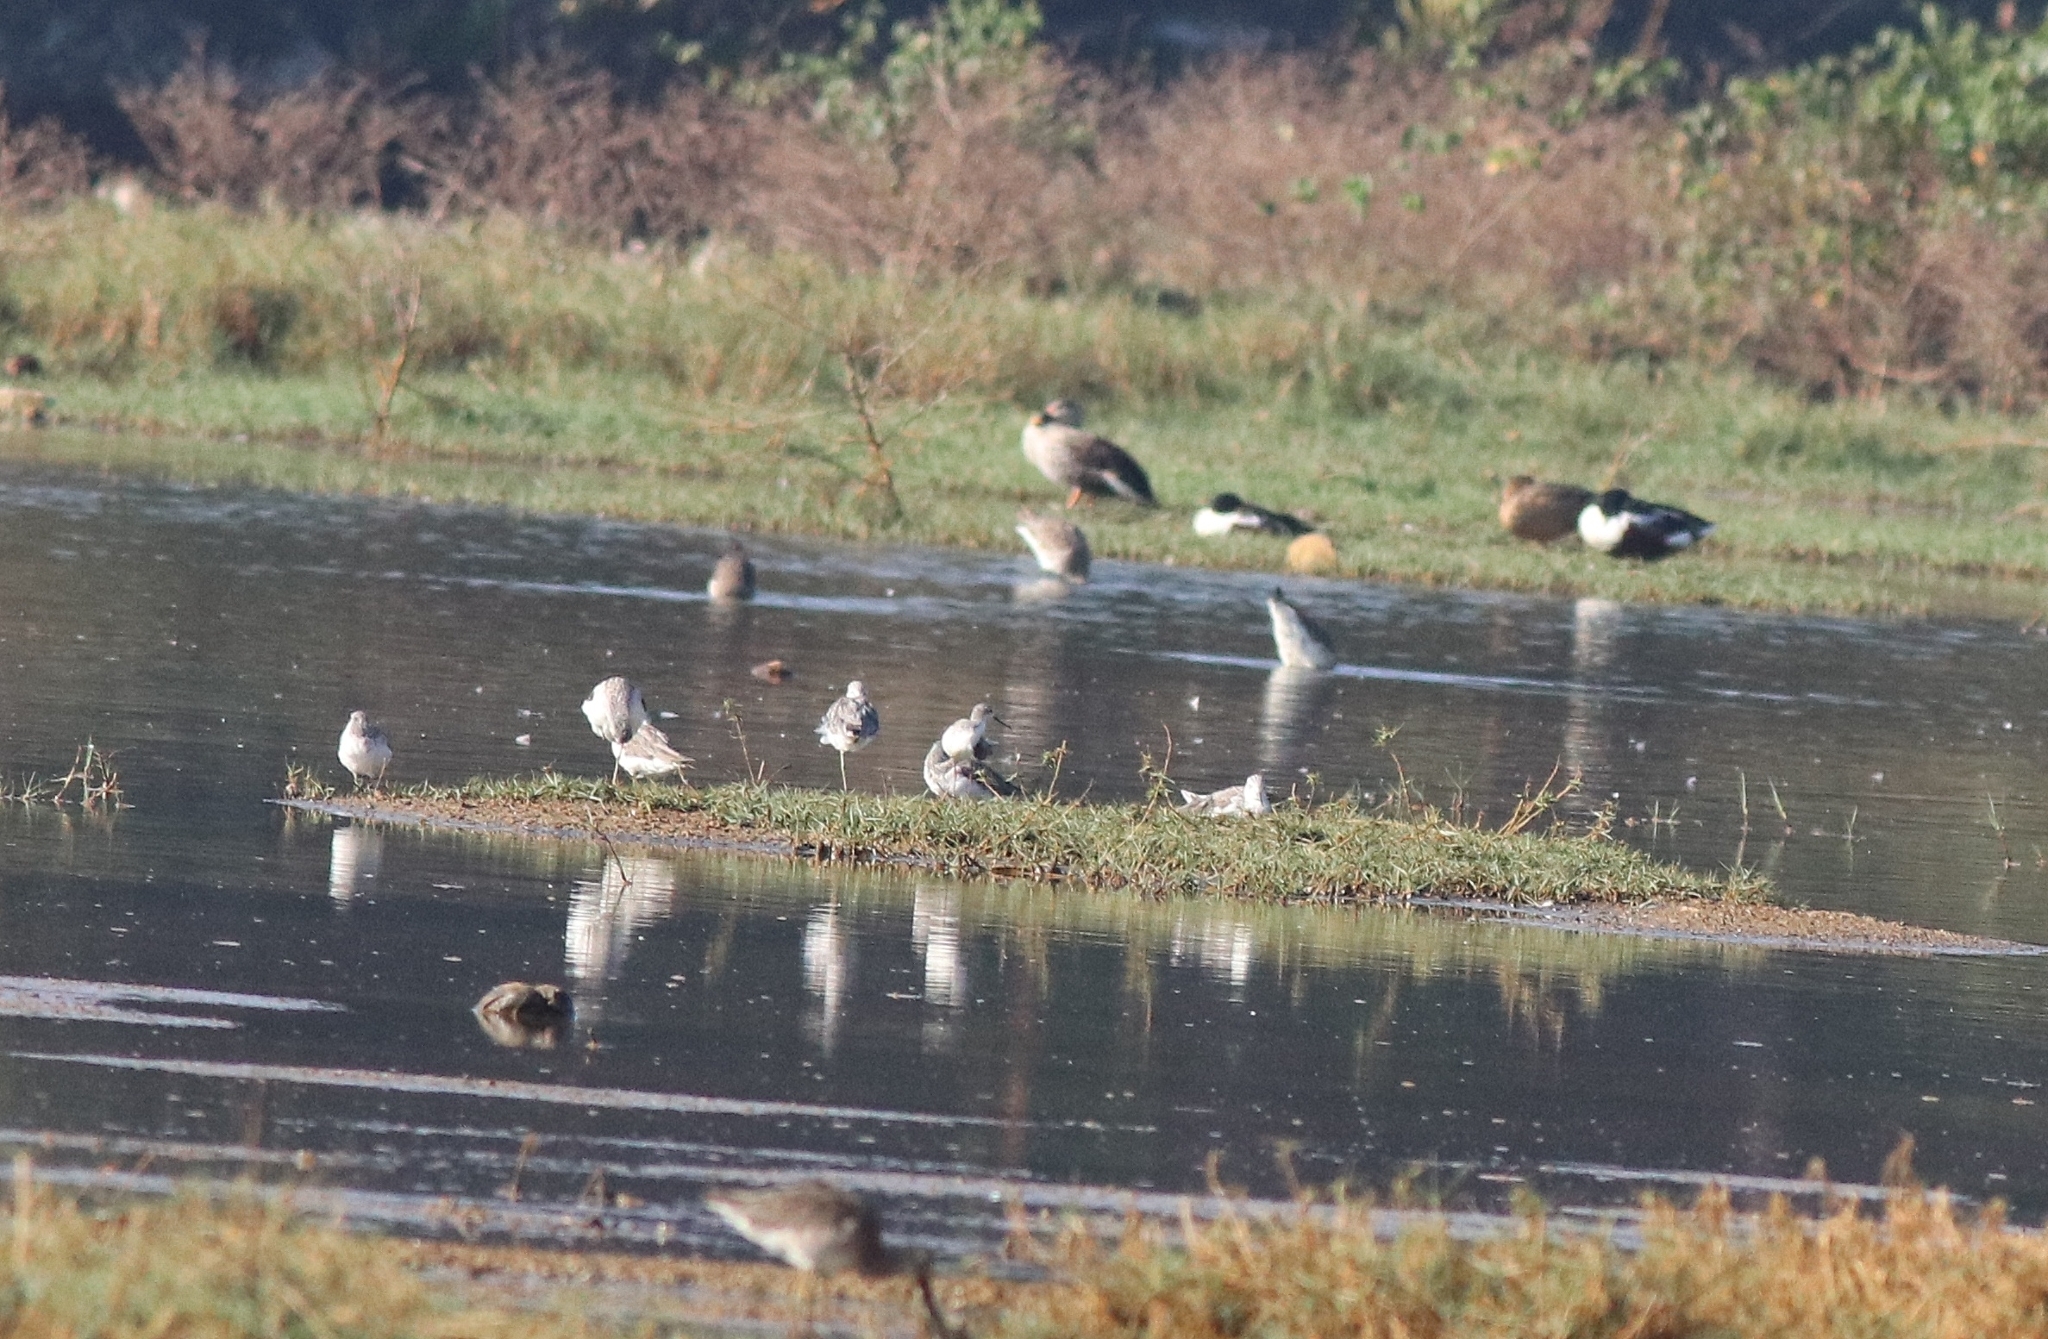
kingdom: Animalia
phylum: Chordata
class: Aves
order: Charadriiformes
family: Scolopacidae
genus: Tringa
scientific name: Tringa nebularia
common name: Common greenshank
